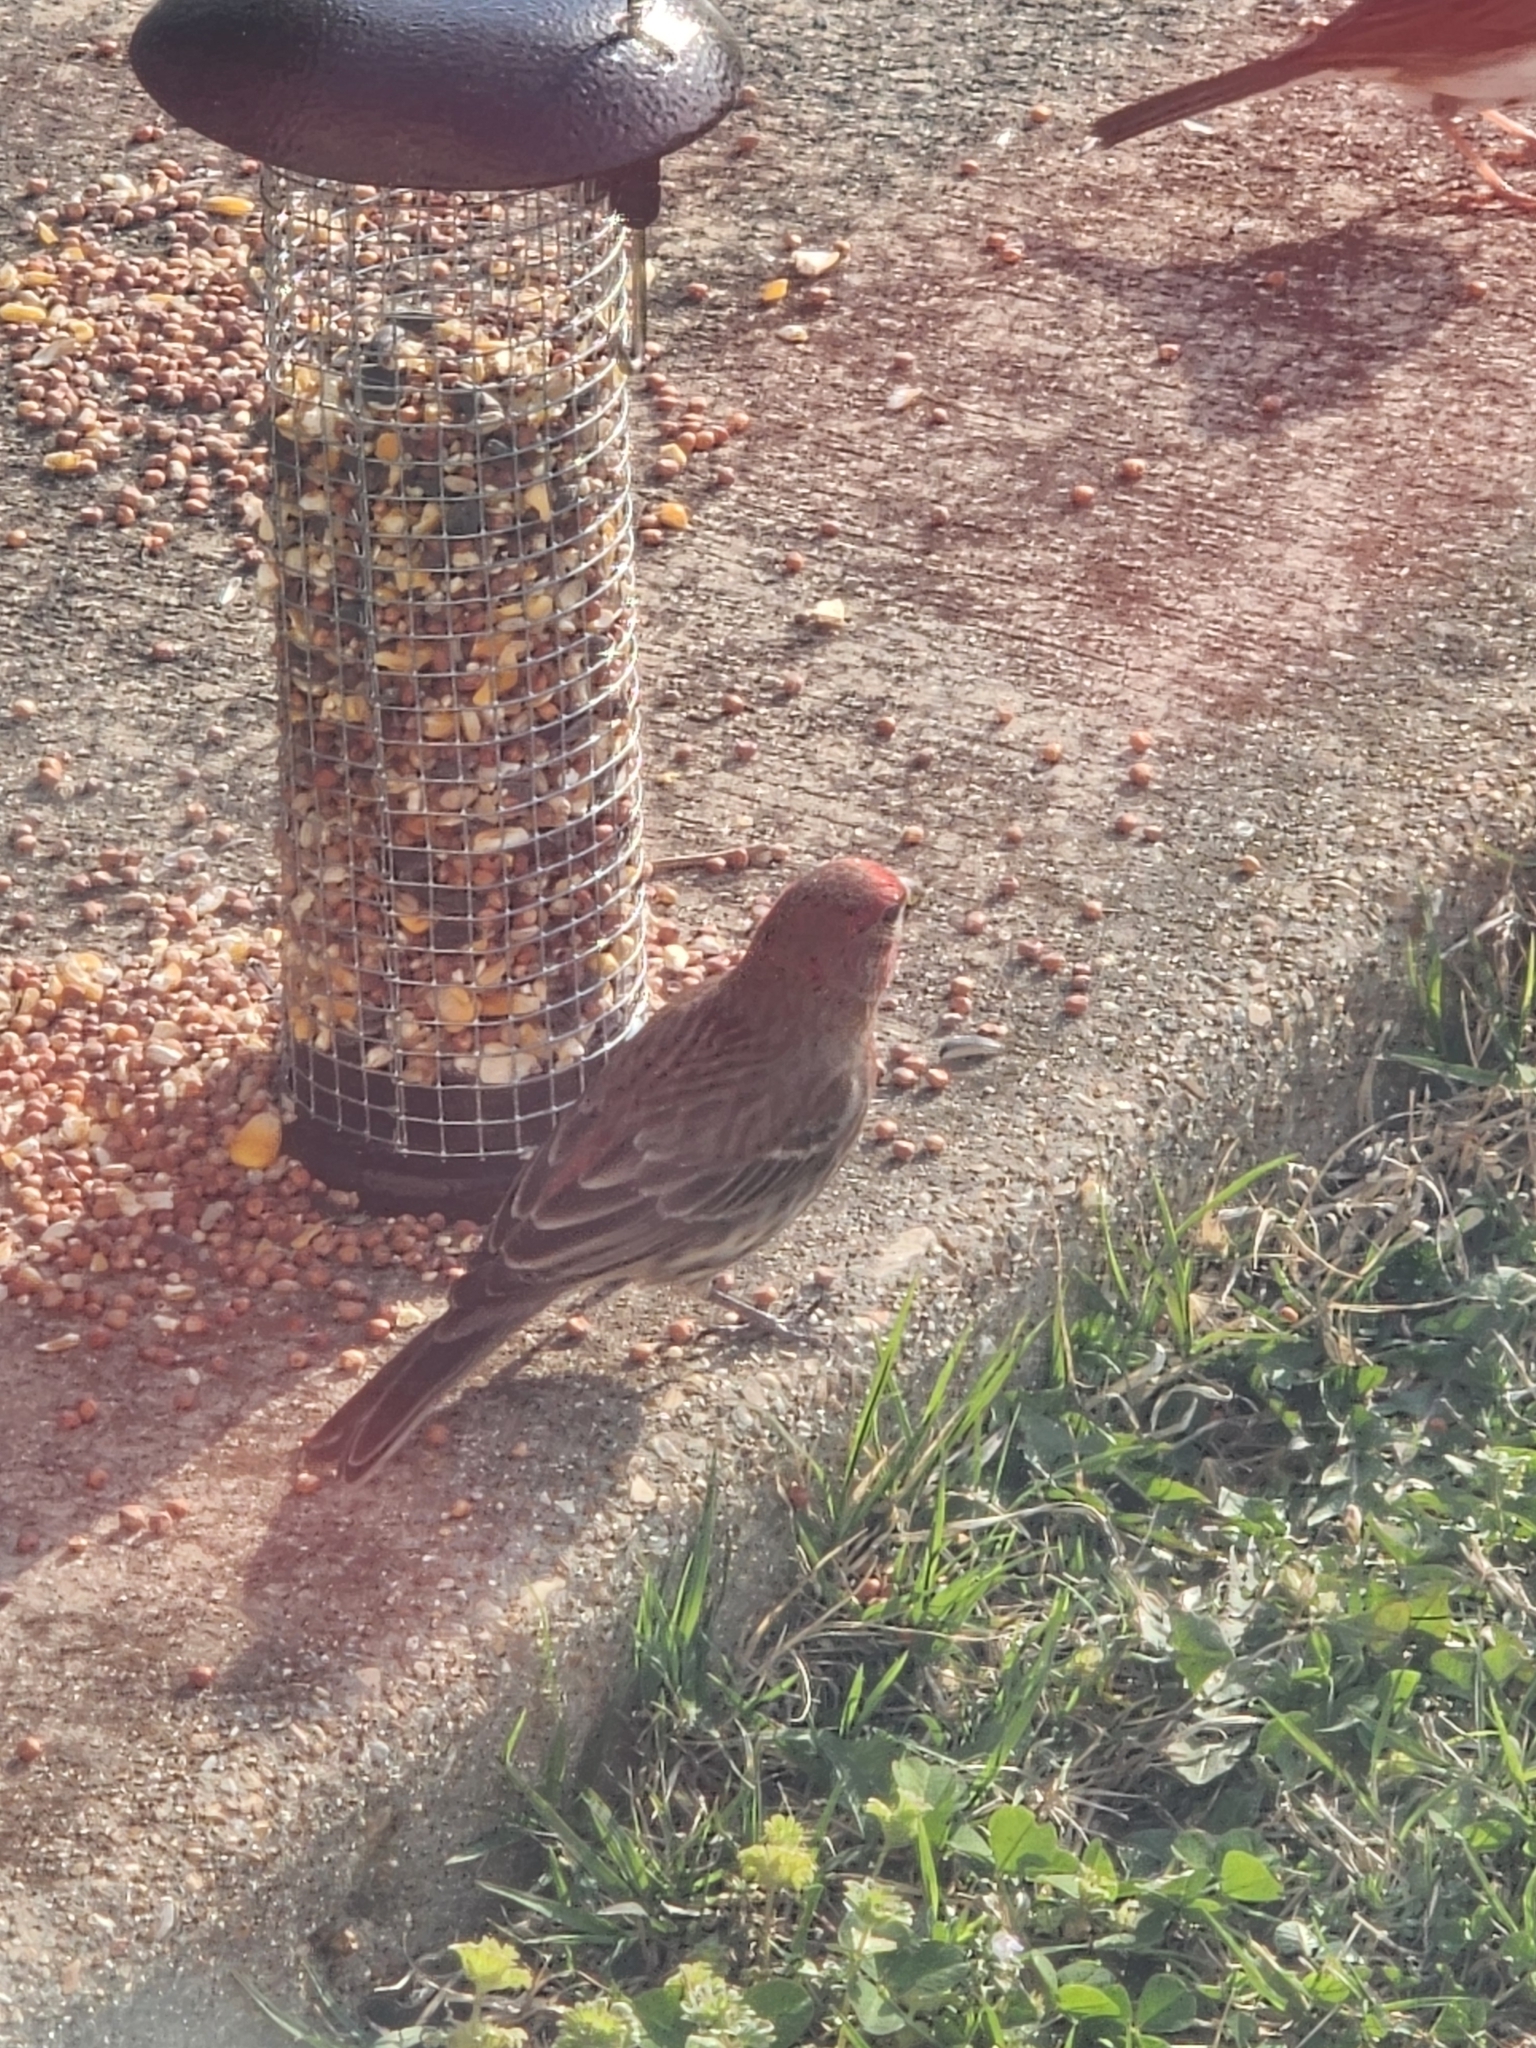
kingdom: Animalia
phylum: Chordata
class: Aves
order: Passeriformes
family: Fringillidae
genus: Haemorhous
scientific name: Haemorhous mexicanus
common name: House finch
